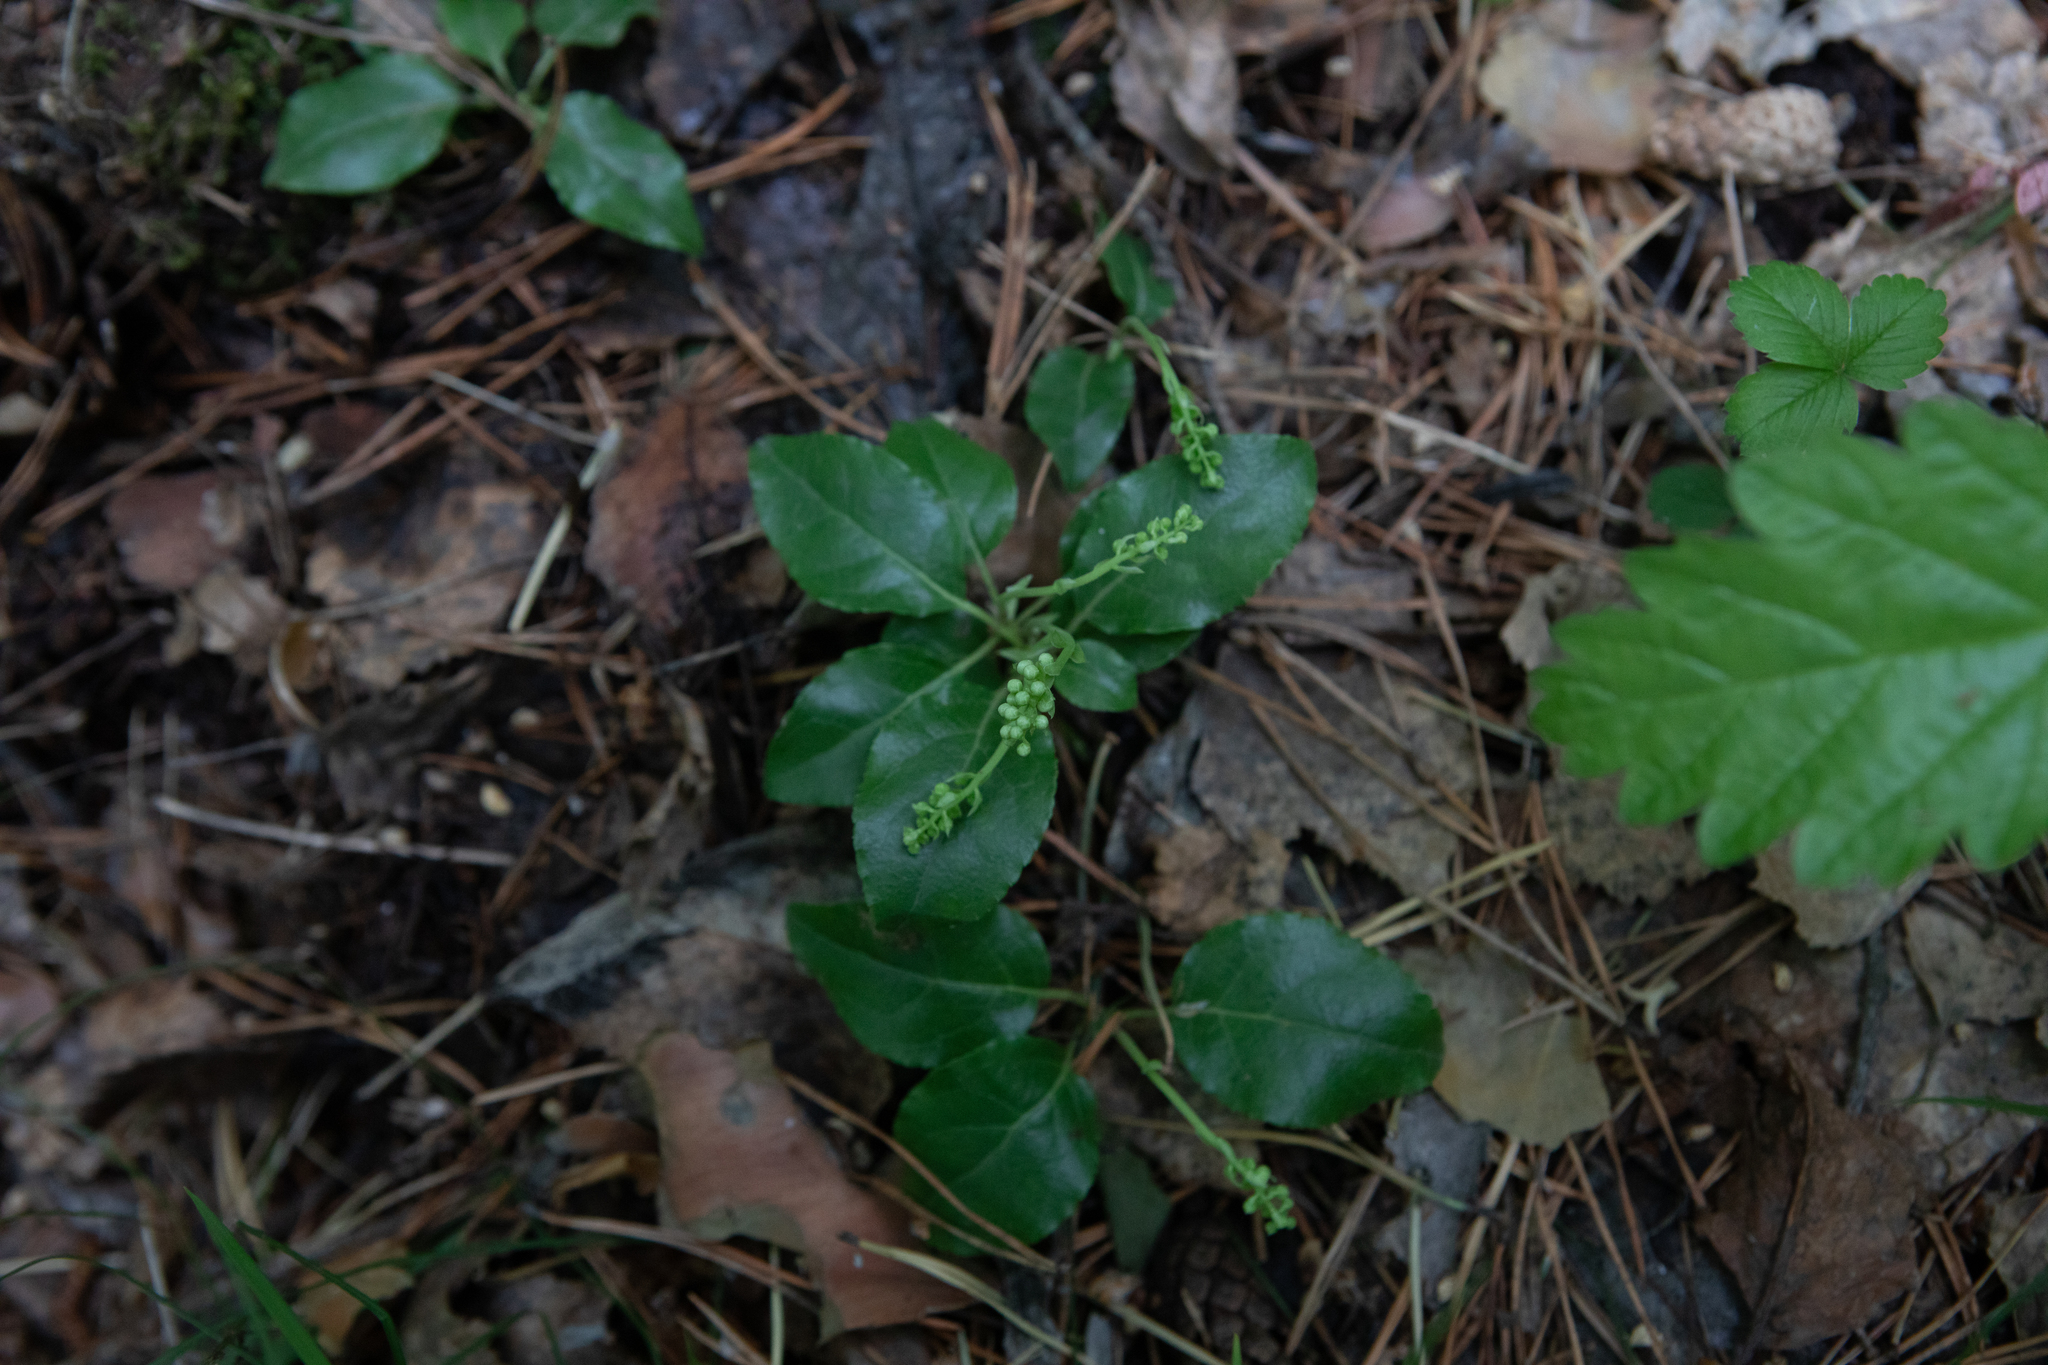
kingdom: Plantae
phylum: Tracheophyta
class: Magnoliopsida
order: Ericales
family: Ericaceae
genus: Orthilia
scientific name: Orthilia secunda
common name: One-sided orthilia
